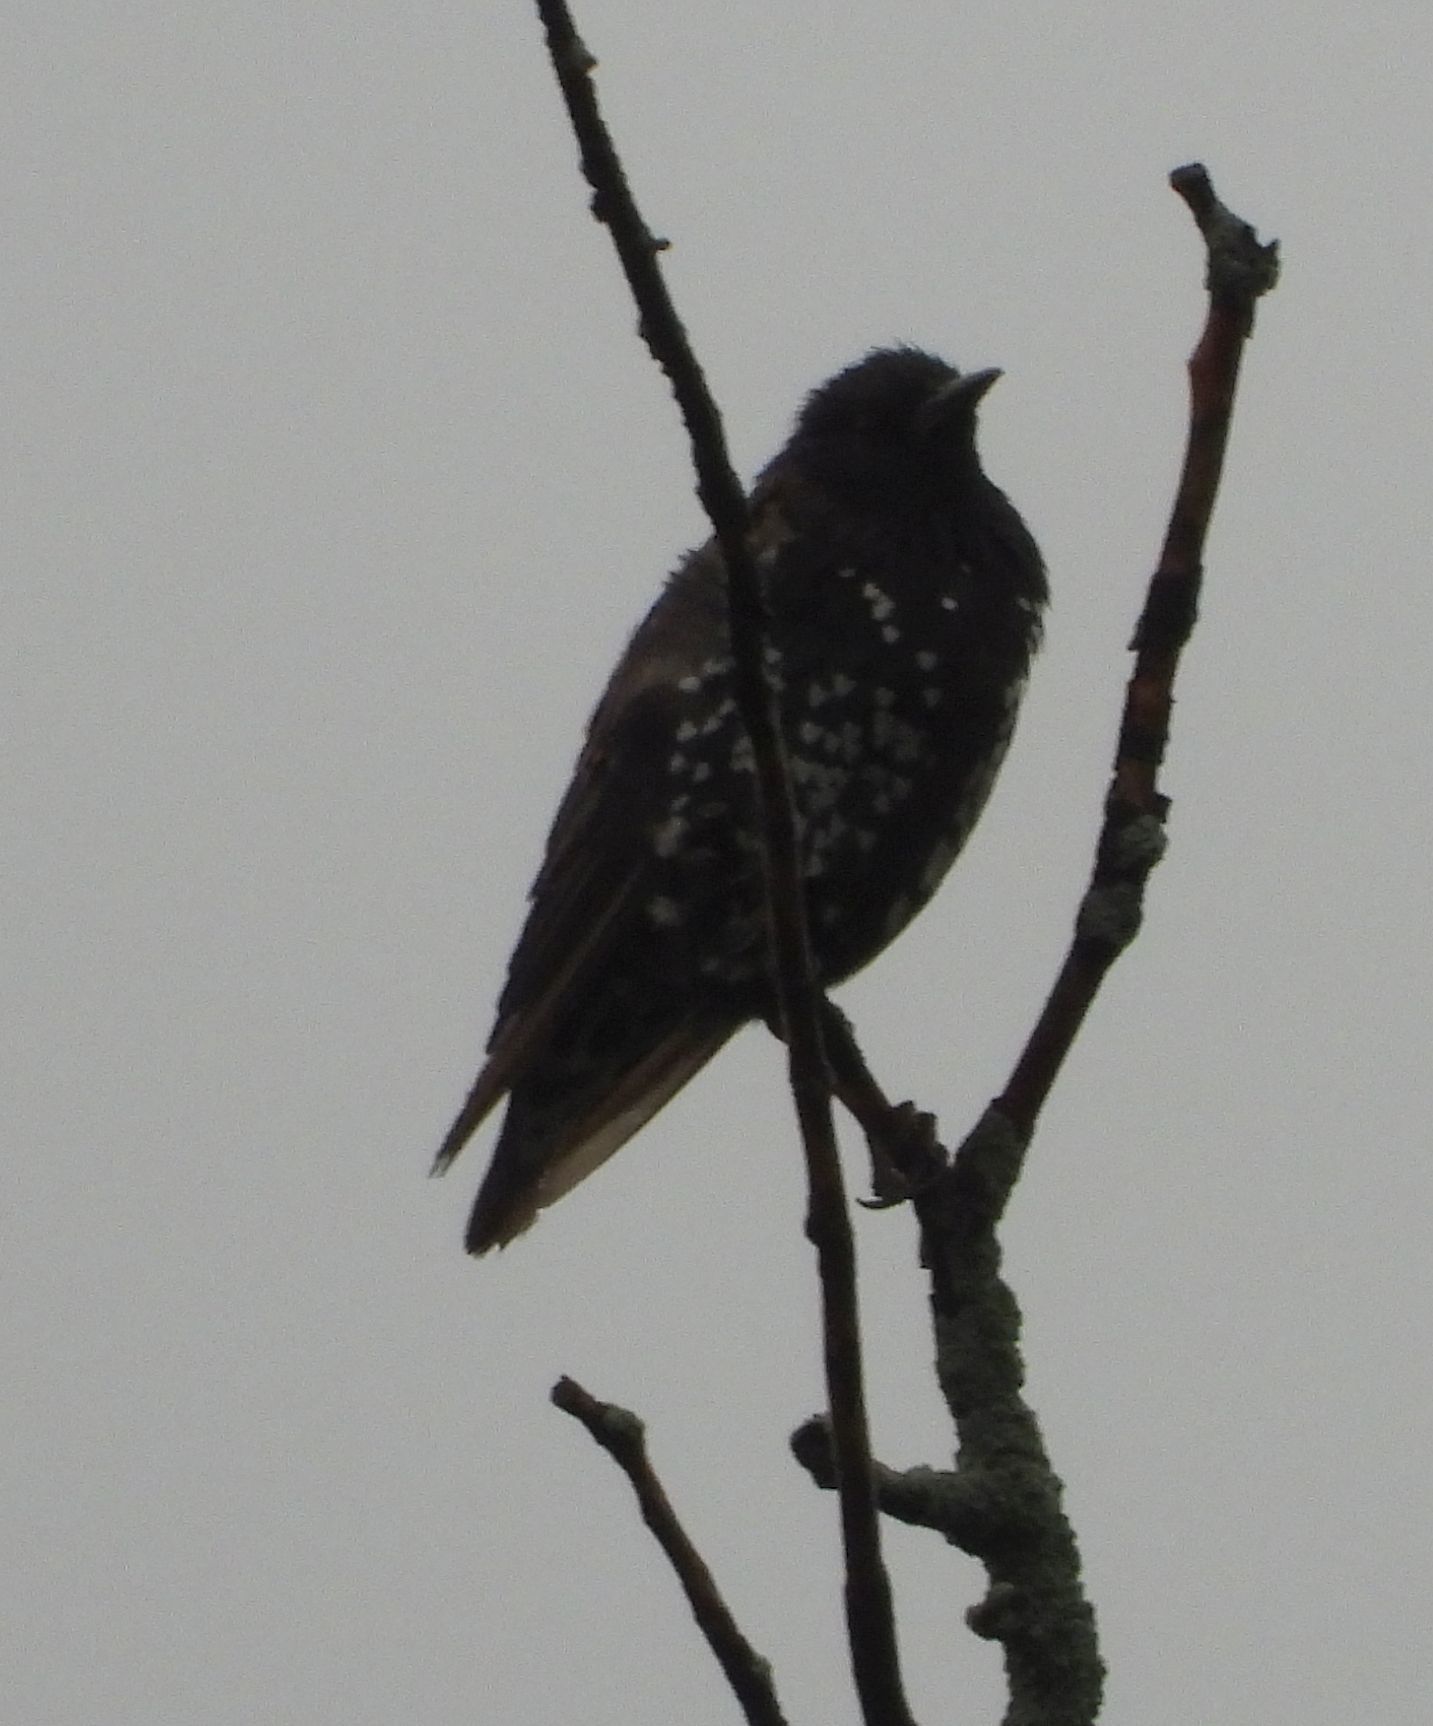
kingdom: Animalia
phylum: Chordata
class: Aves
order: Passeriformes
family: Sturnidae
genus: Sturnus
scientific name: Sturnus vulgaris
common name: Common starling
